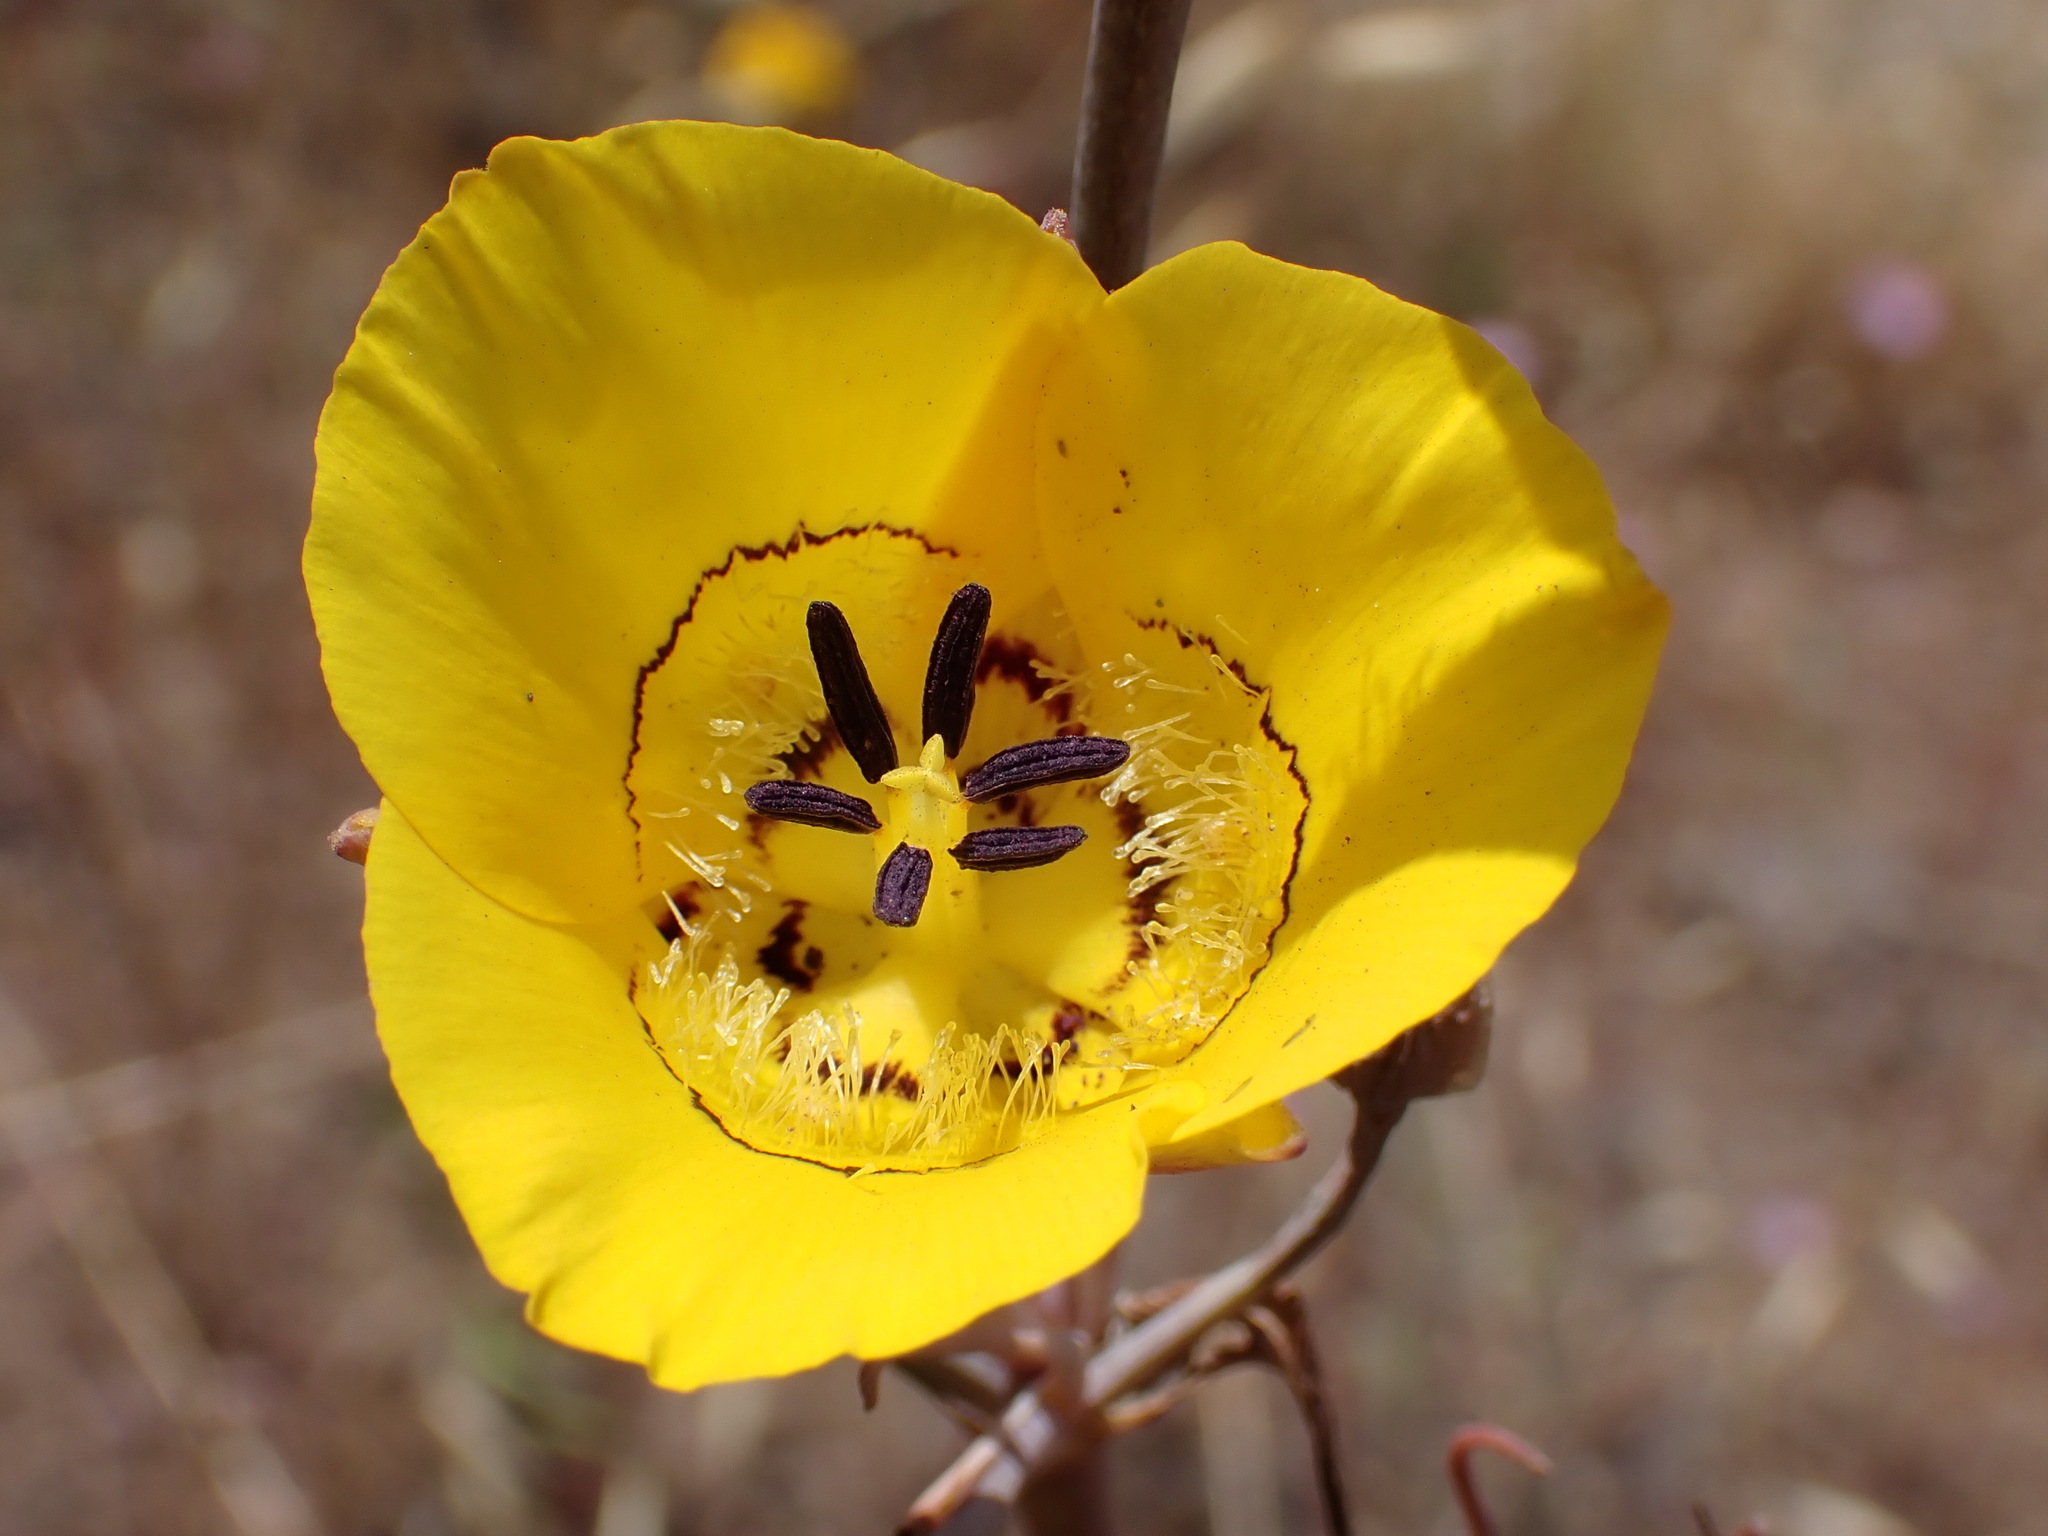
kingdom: Plantae
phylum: Tracheophyta
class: Liliopsida
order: Liliales
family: Liliaceae
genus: Calochortus
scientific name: Calochortus clavatus
